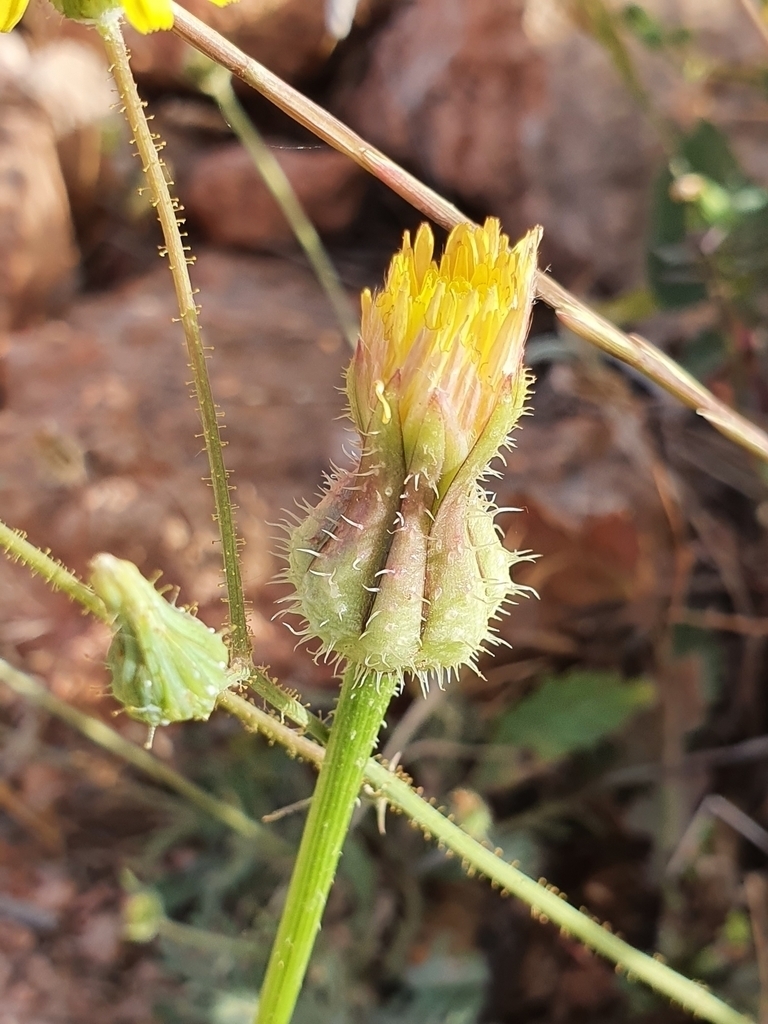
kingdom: Plantae
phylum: Tracheophyta
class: Magnoliopsida
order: Asterales
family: Asteraceae
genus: Urospermum
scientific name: Urospermum picroides
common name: False hawkbit
